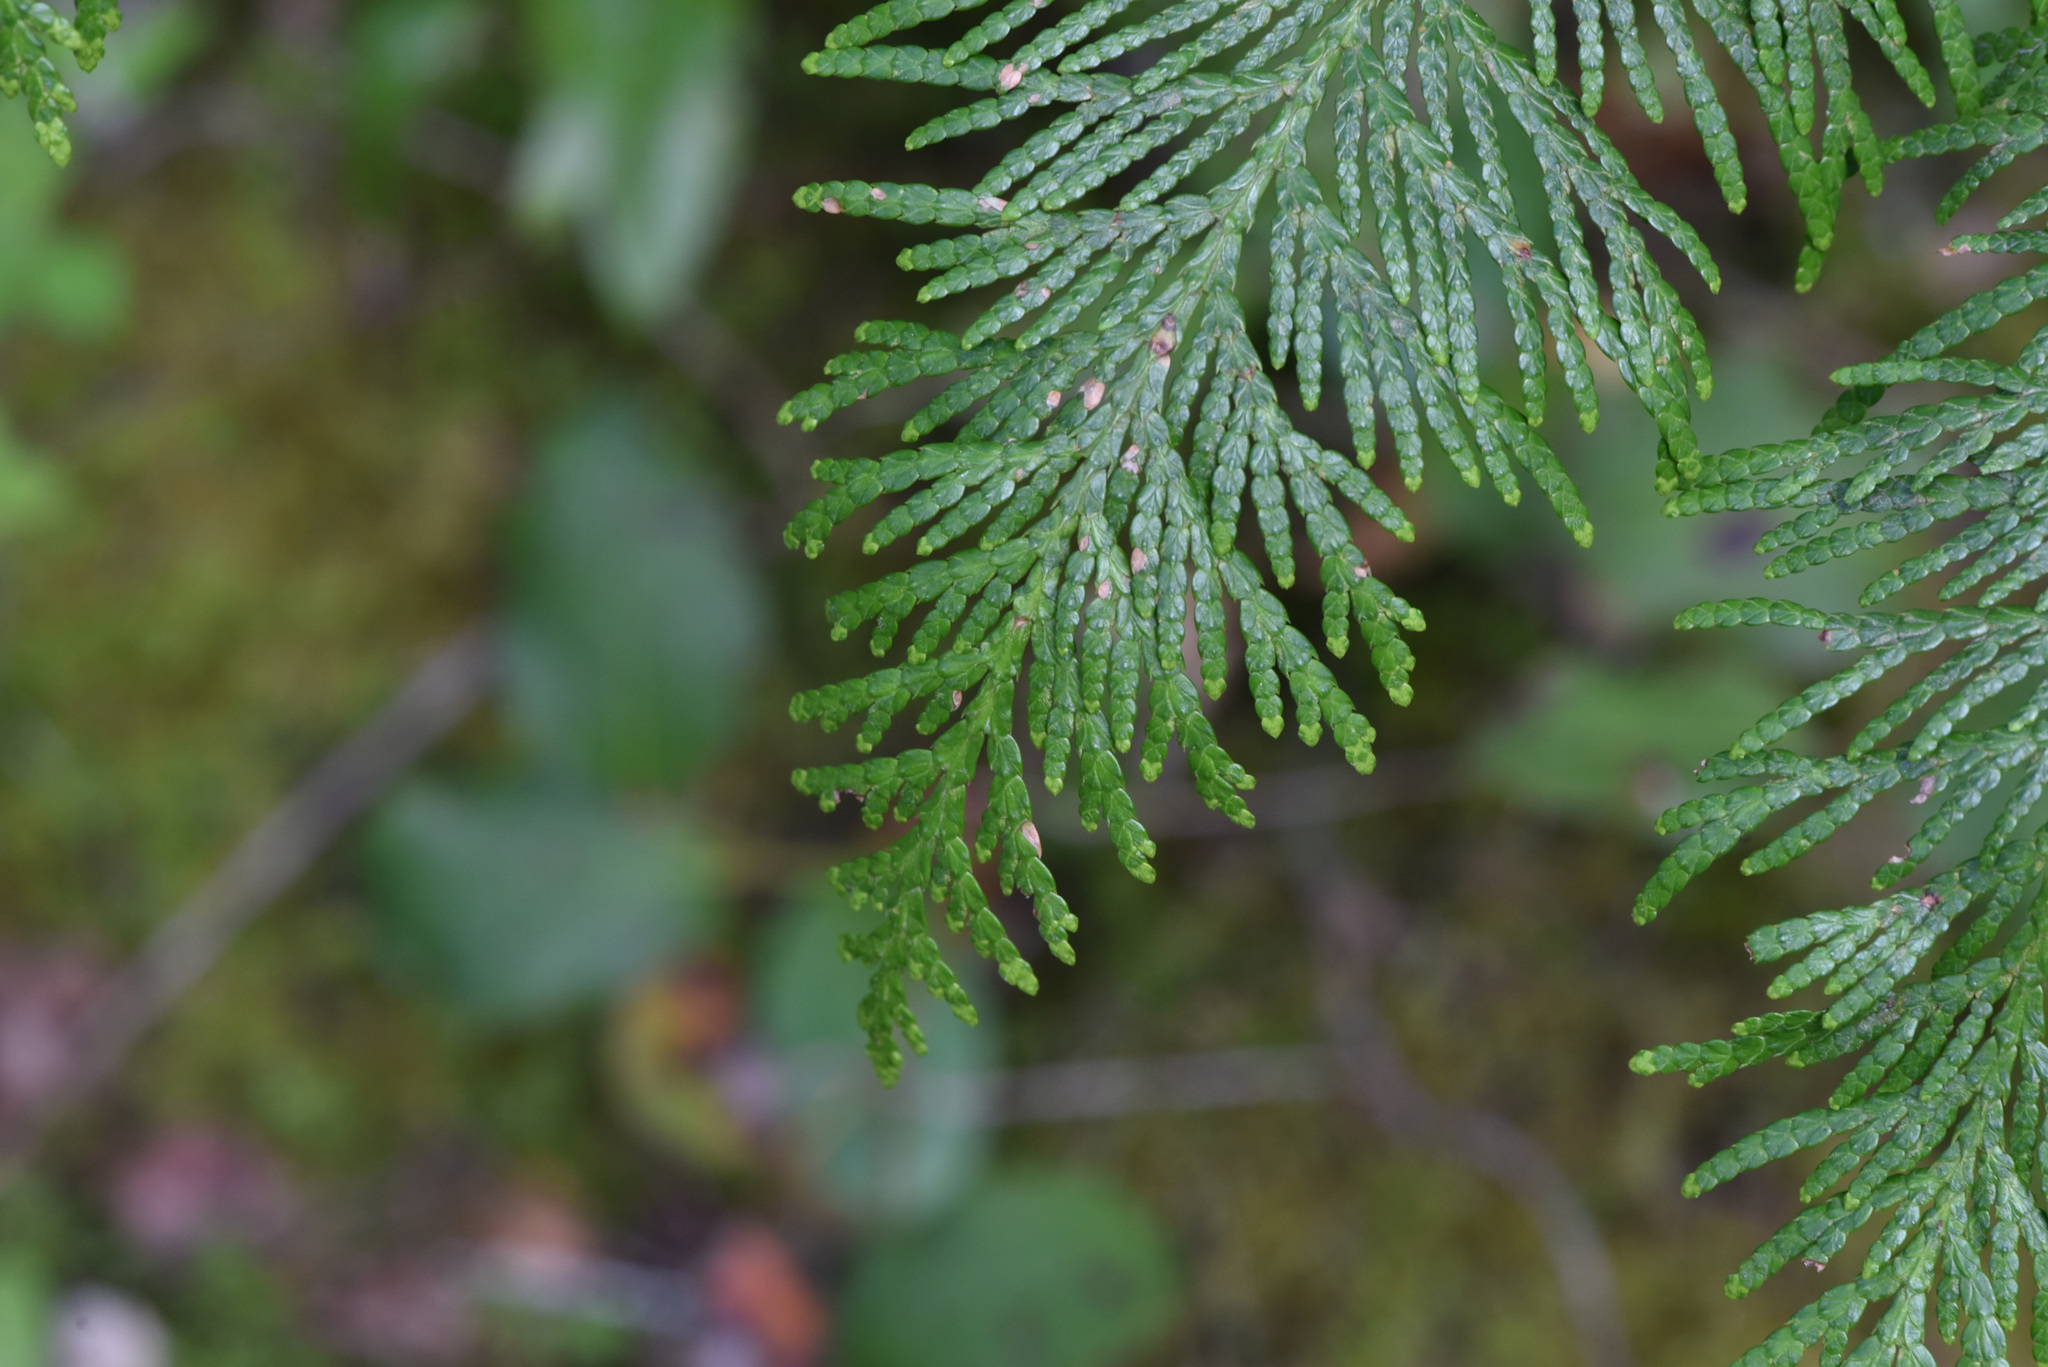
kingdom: Plantae
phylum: Tracheophyta
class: Pinopsida
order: Pinales
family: Cupressaceae
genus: Thuja
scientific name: Thuja plicata
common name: Western red-cedar
